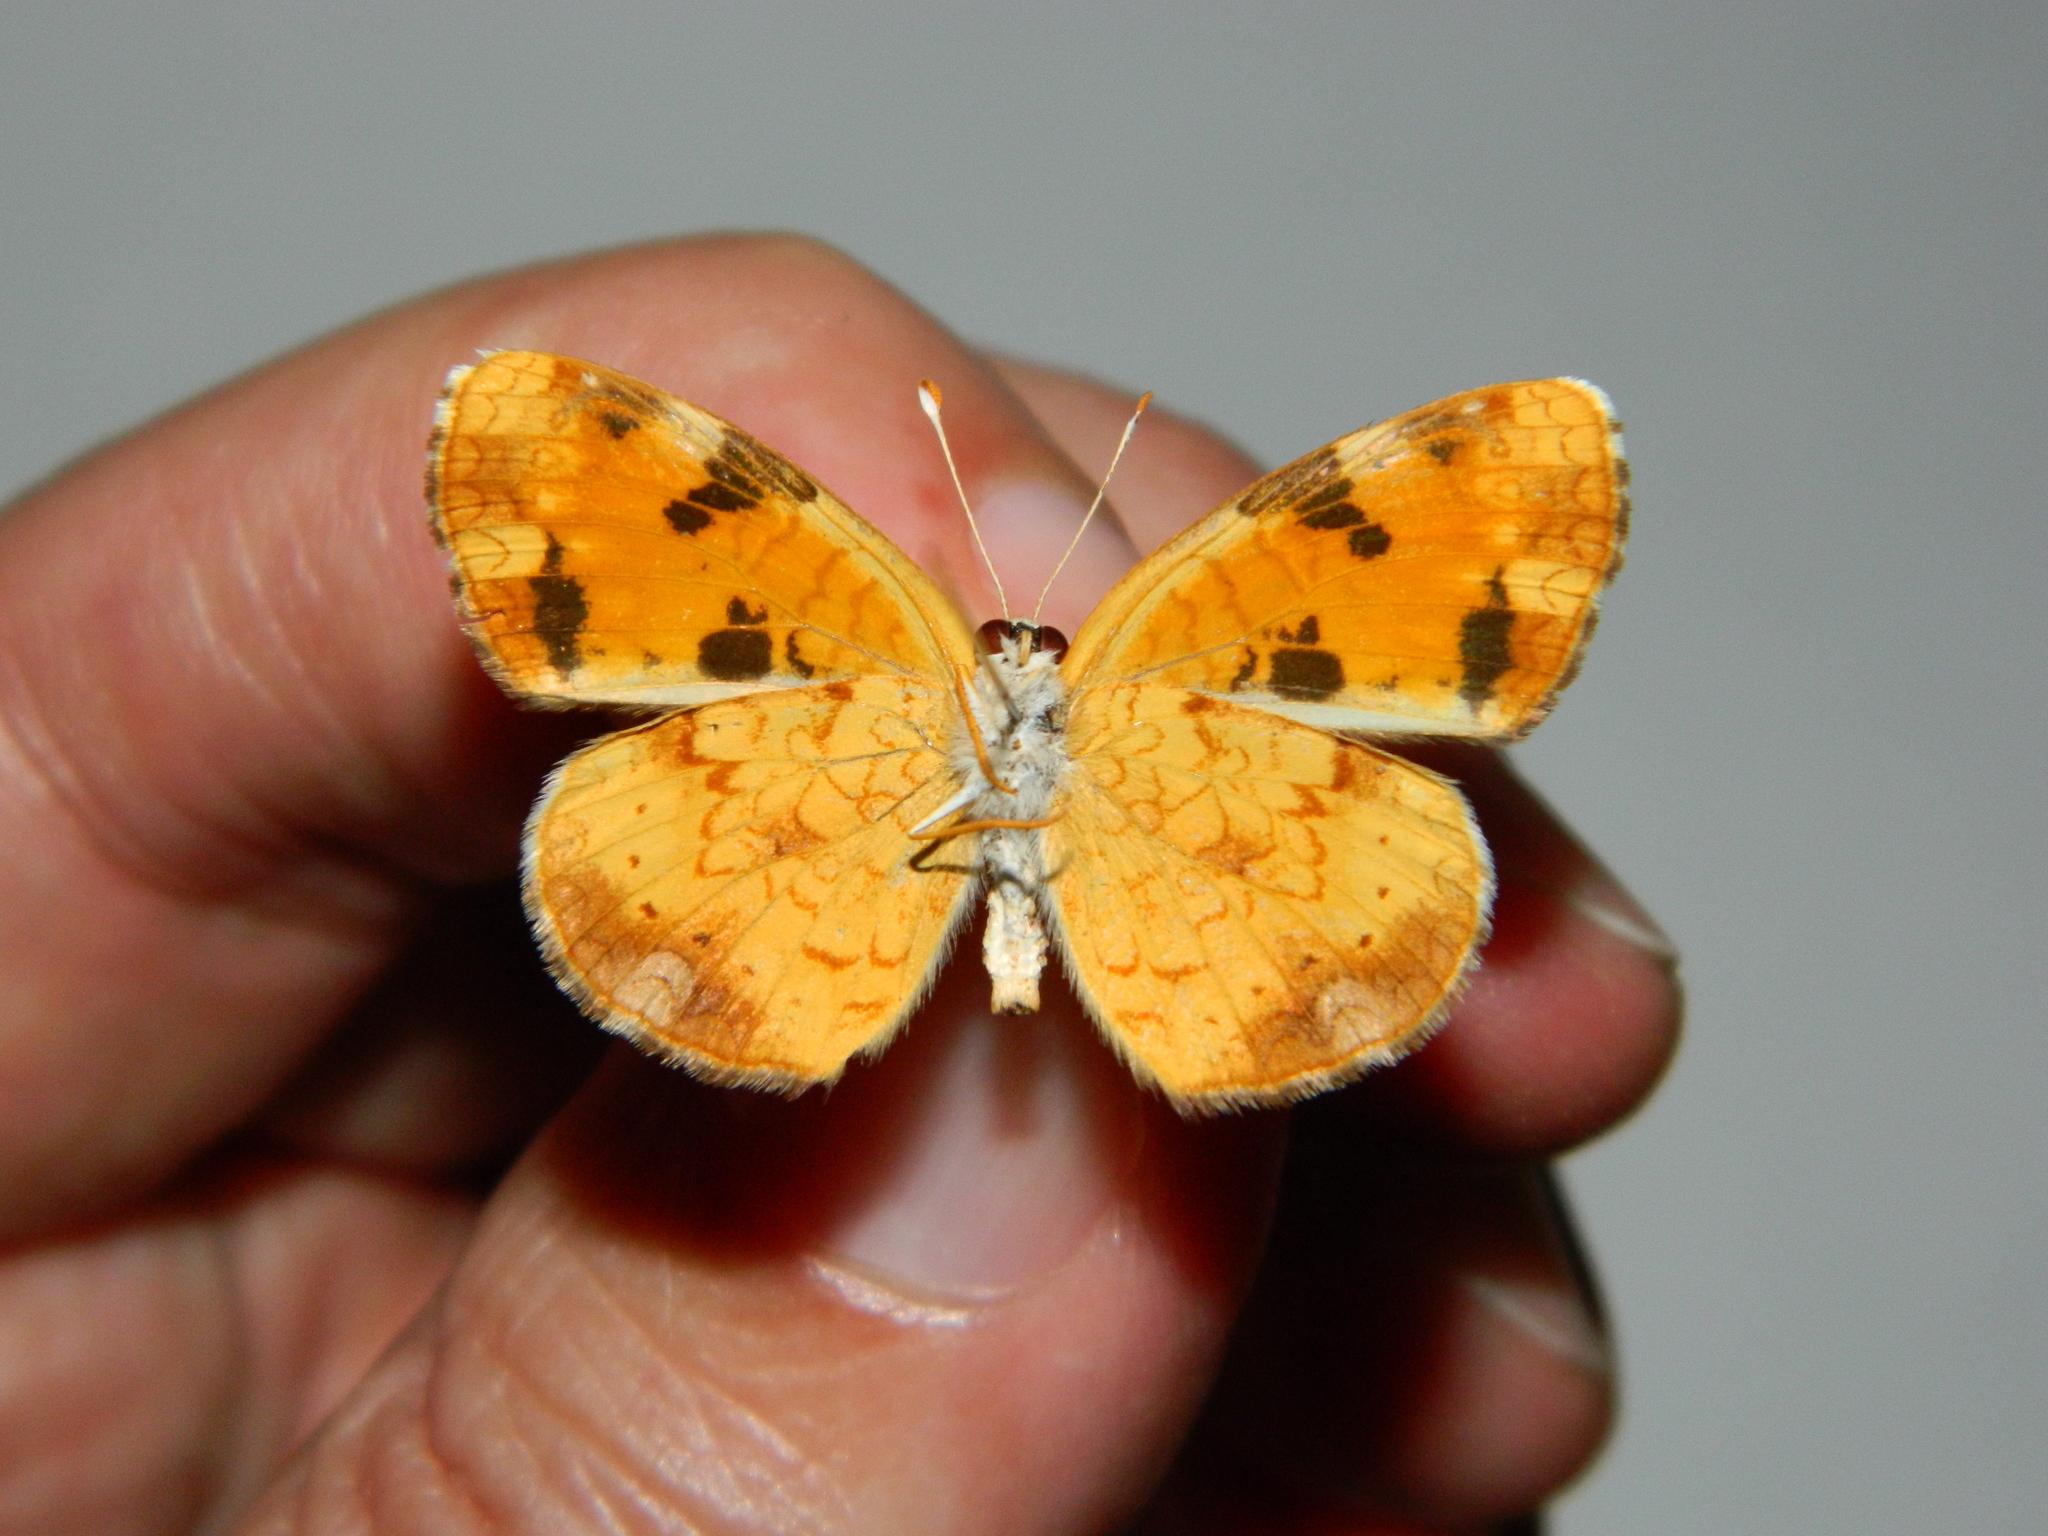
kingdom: Animalia
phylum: Arthropoda
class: Insecta
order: Lepidoptera
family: Nymphalidae
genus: Phyciodes
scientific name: Phyciodes tharos
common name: Pearl crescent
